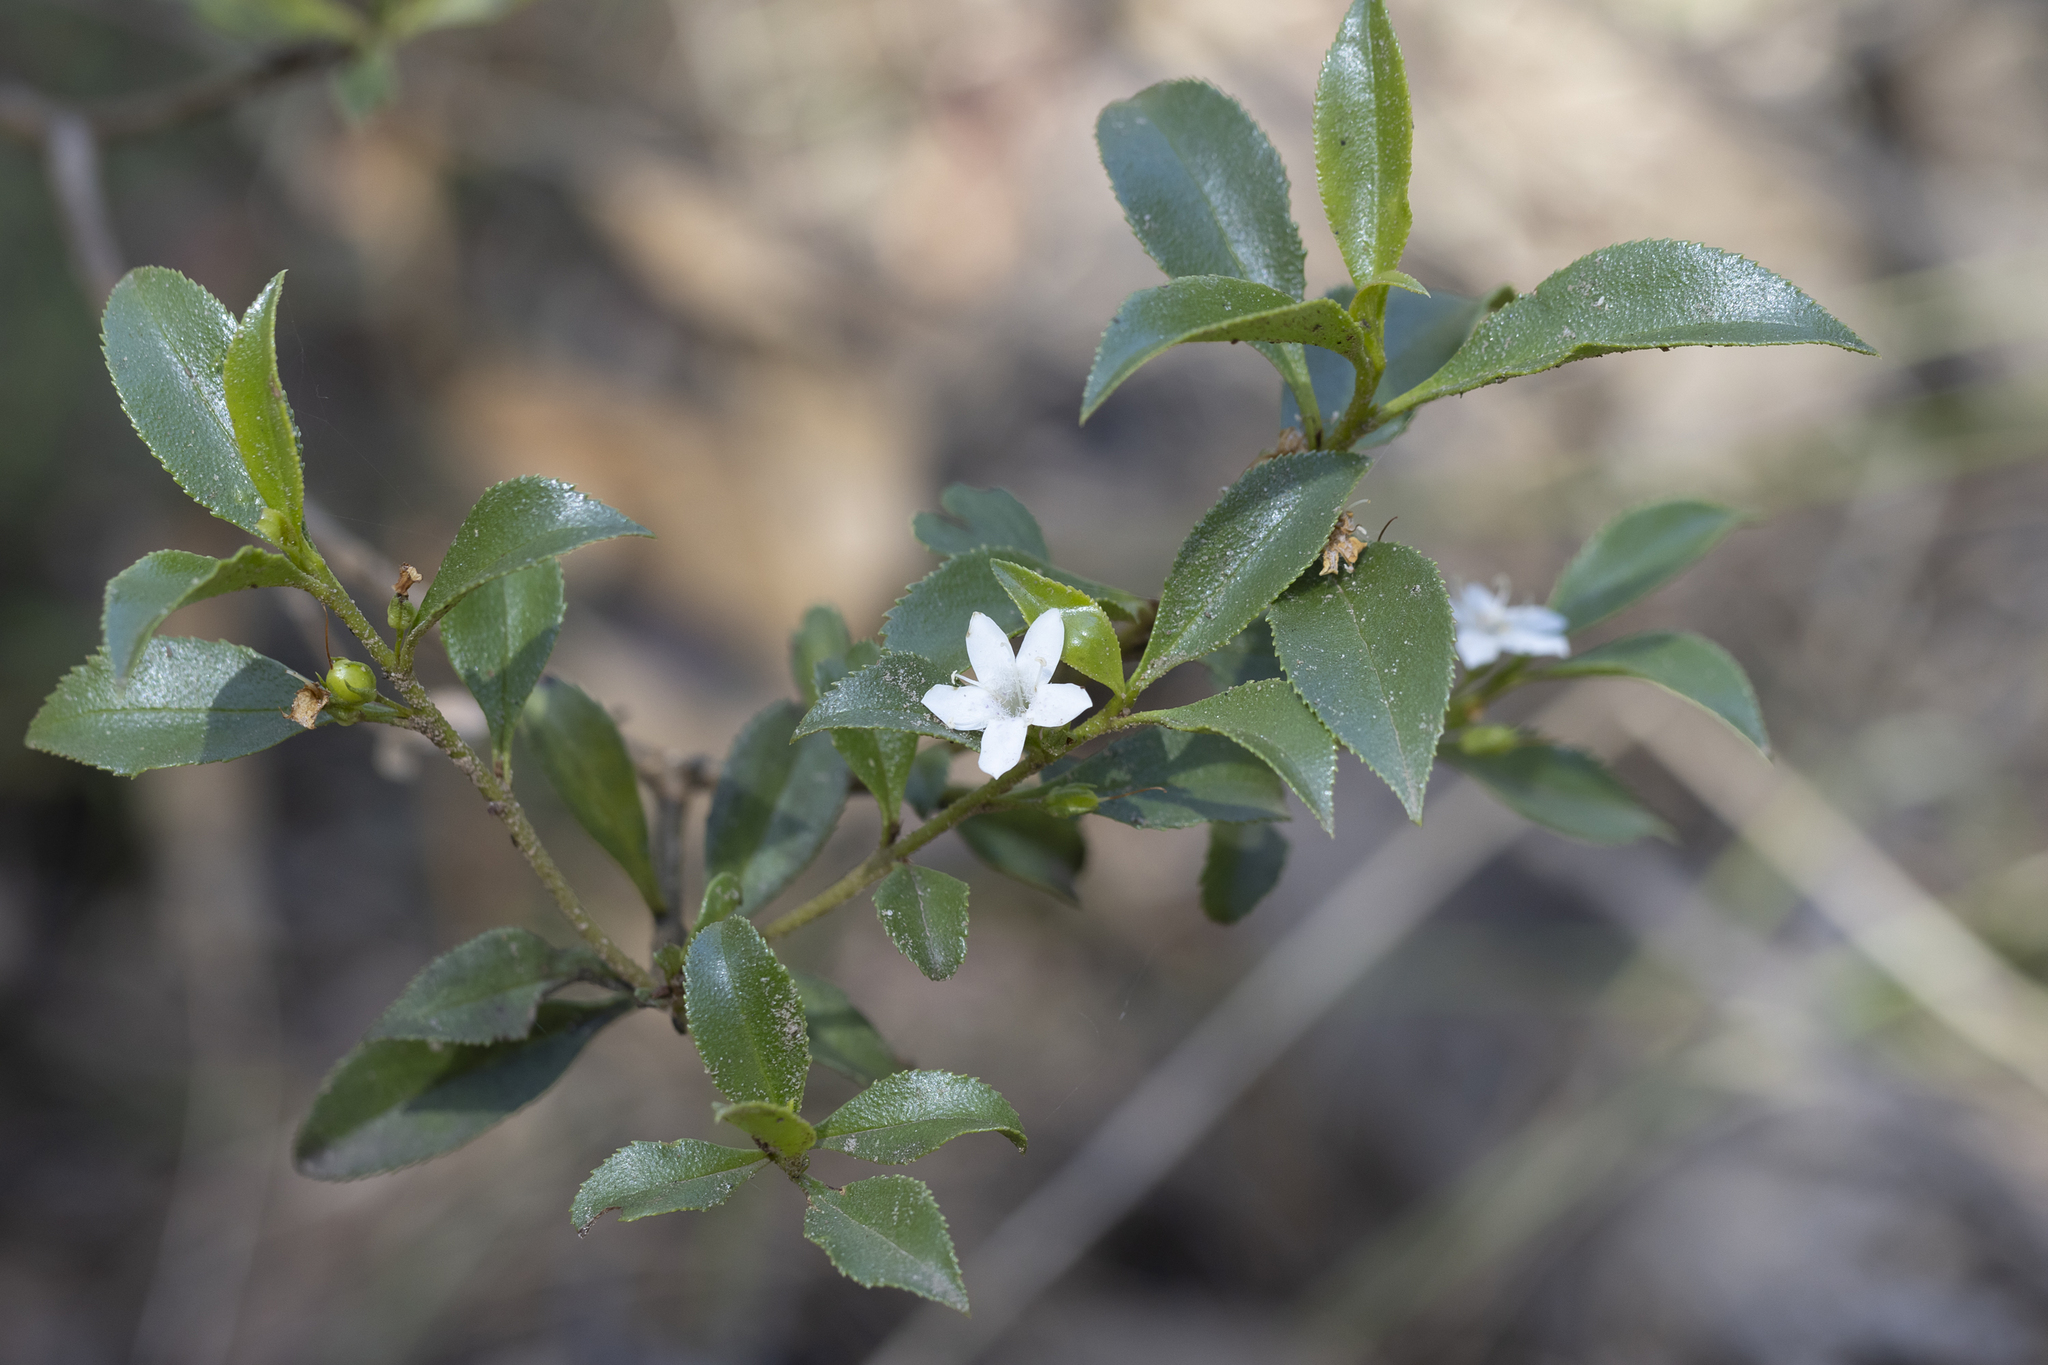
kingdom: Plantae
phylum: Tracheophyta
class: Magnoliopsida
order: Lamiales
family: Scrophulariaceae
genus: Myoporum
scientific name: Myoporum petiolatum
